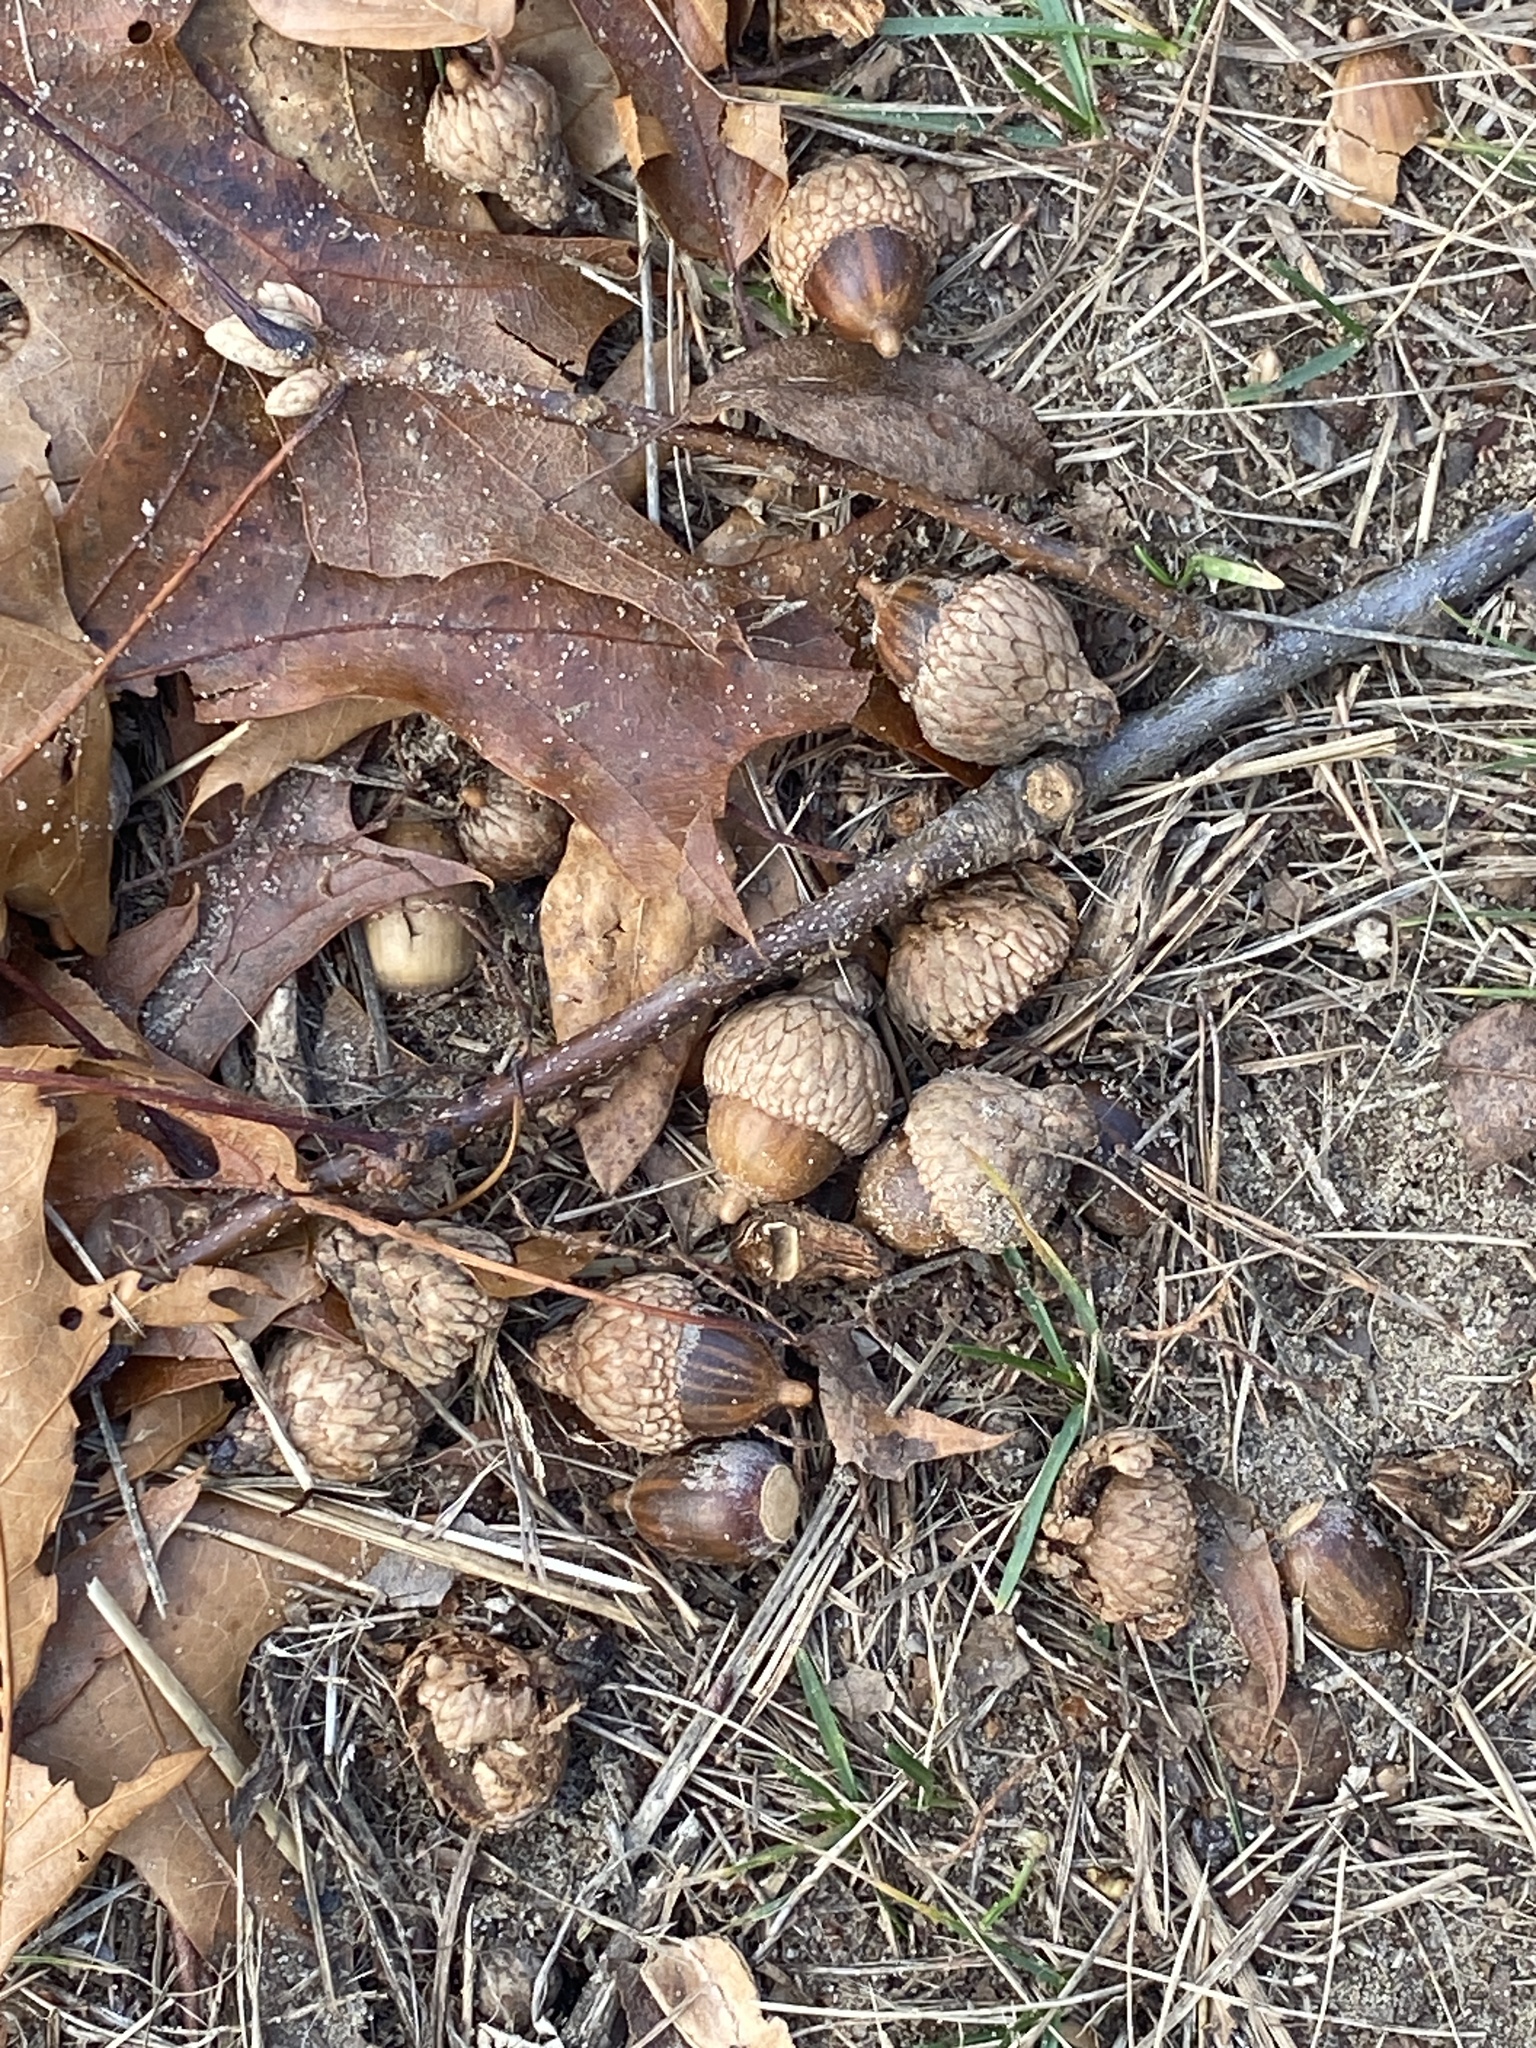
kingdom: Plantae
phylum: Tracheophyta
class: Magnoliopsida
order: Fagales
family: Fagaceae
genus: Quercus
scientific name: Quercus velutina
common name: Black oak
